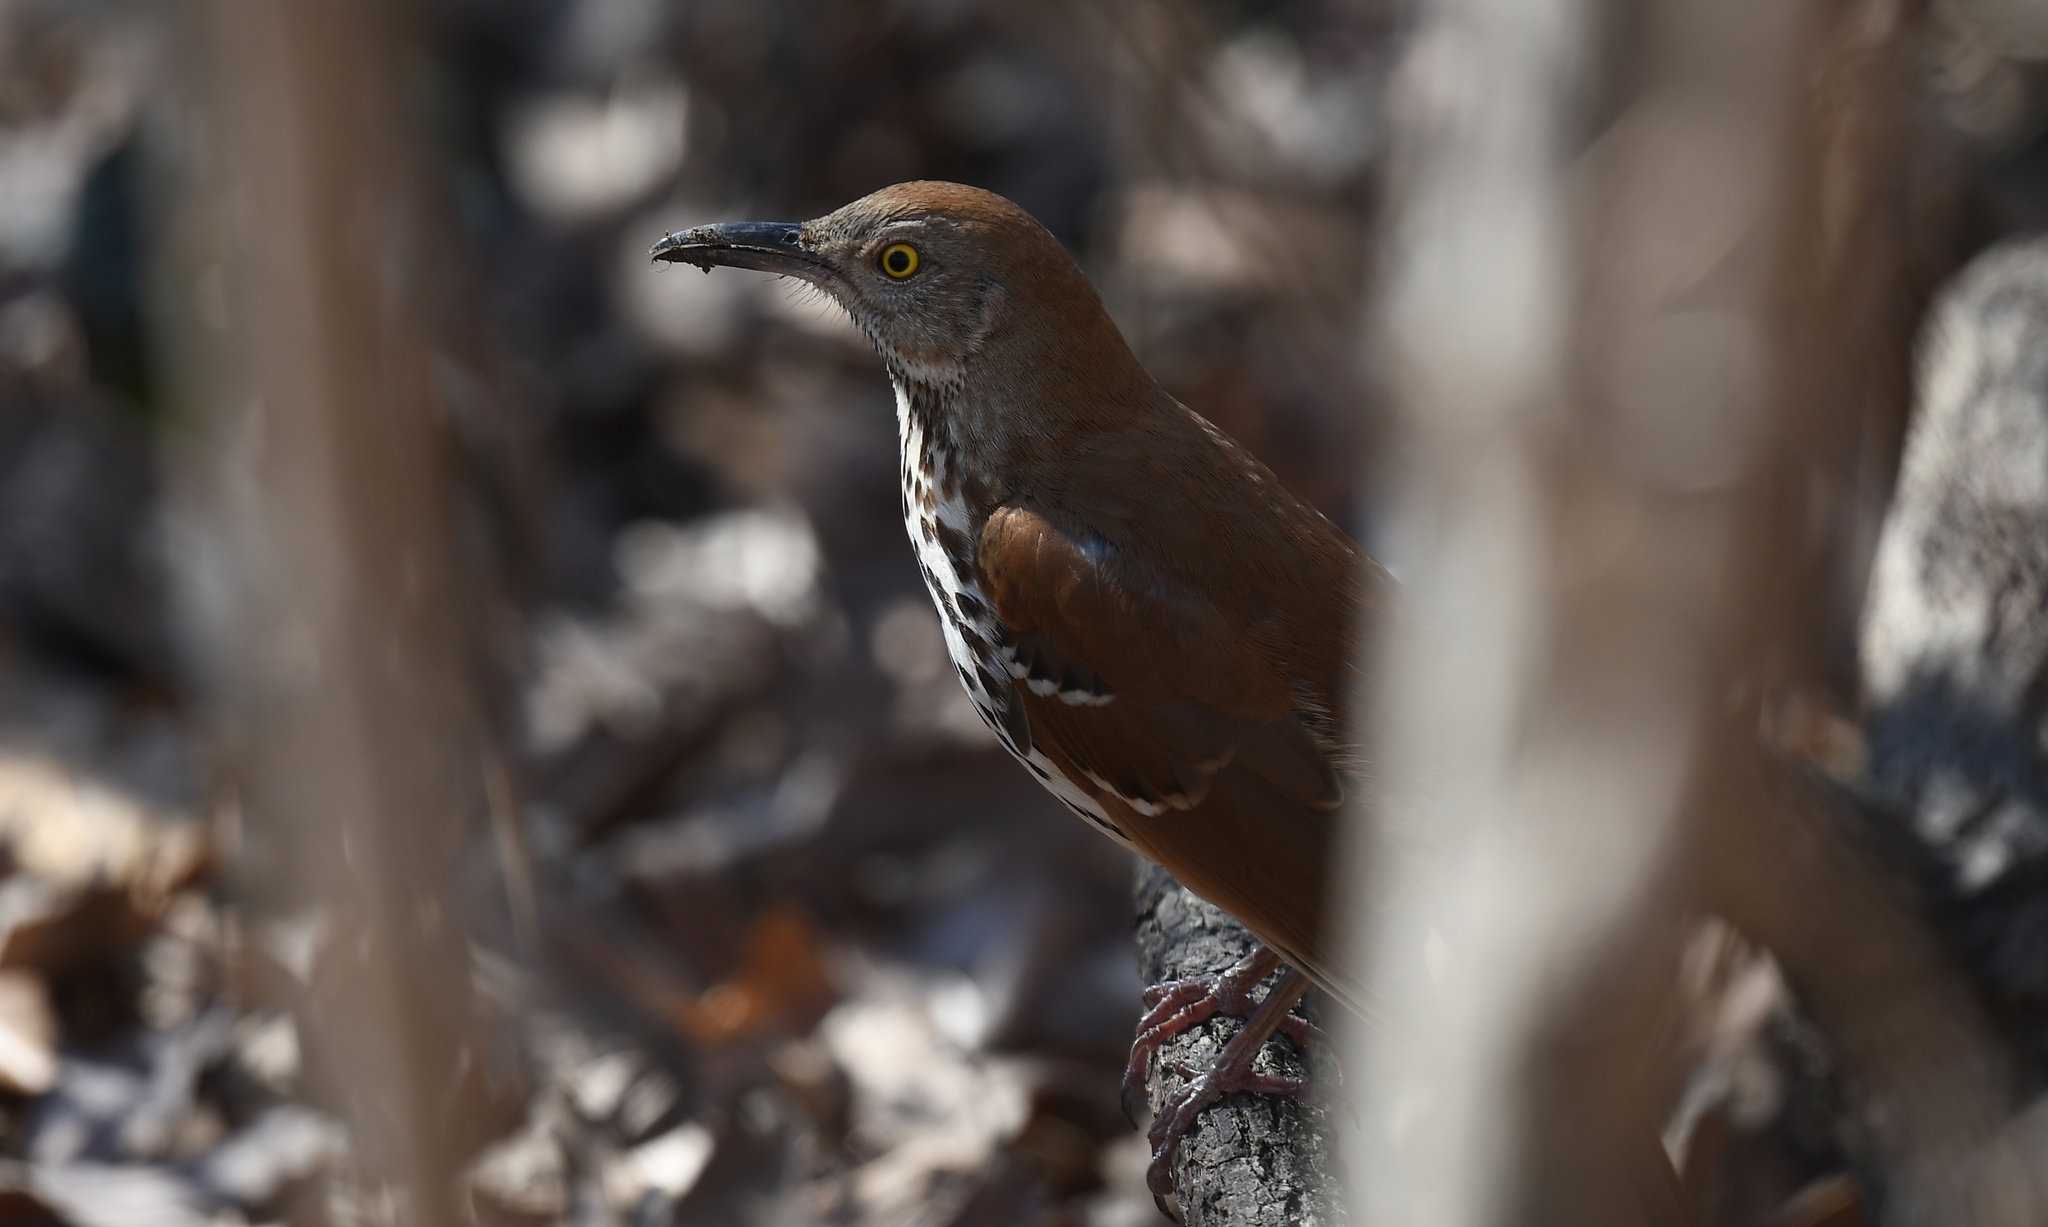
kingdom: Animalia
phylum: Chordata
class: Aves
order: Passeriformes
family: Mimidae
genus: Toxostoma
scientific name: Toxostoma rufum
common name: Brown thrasher
